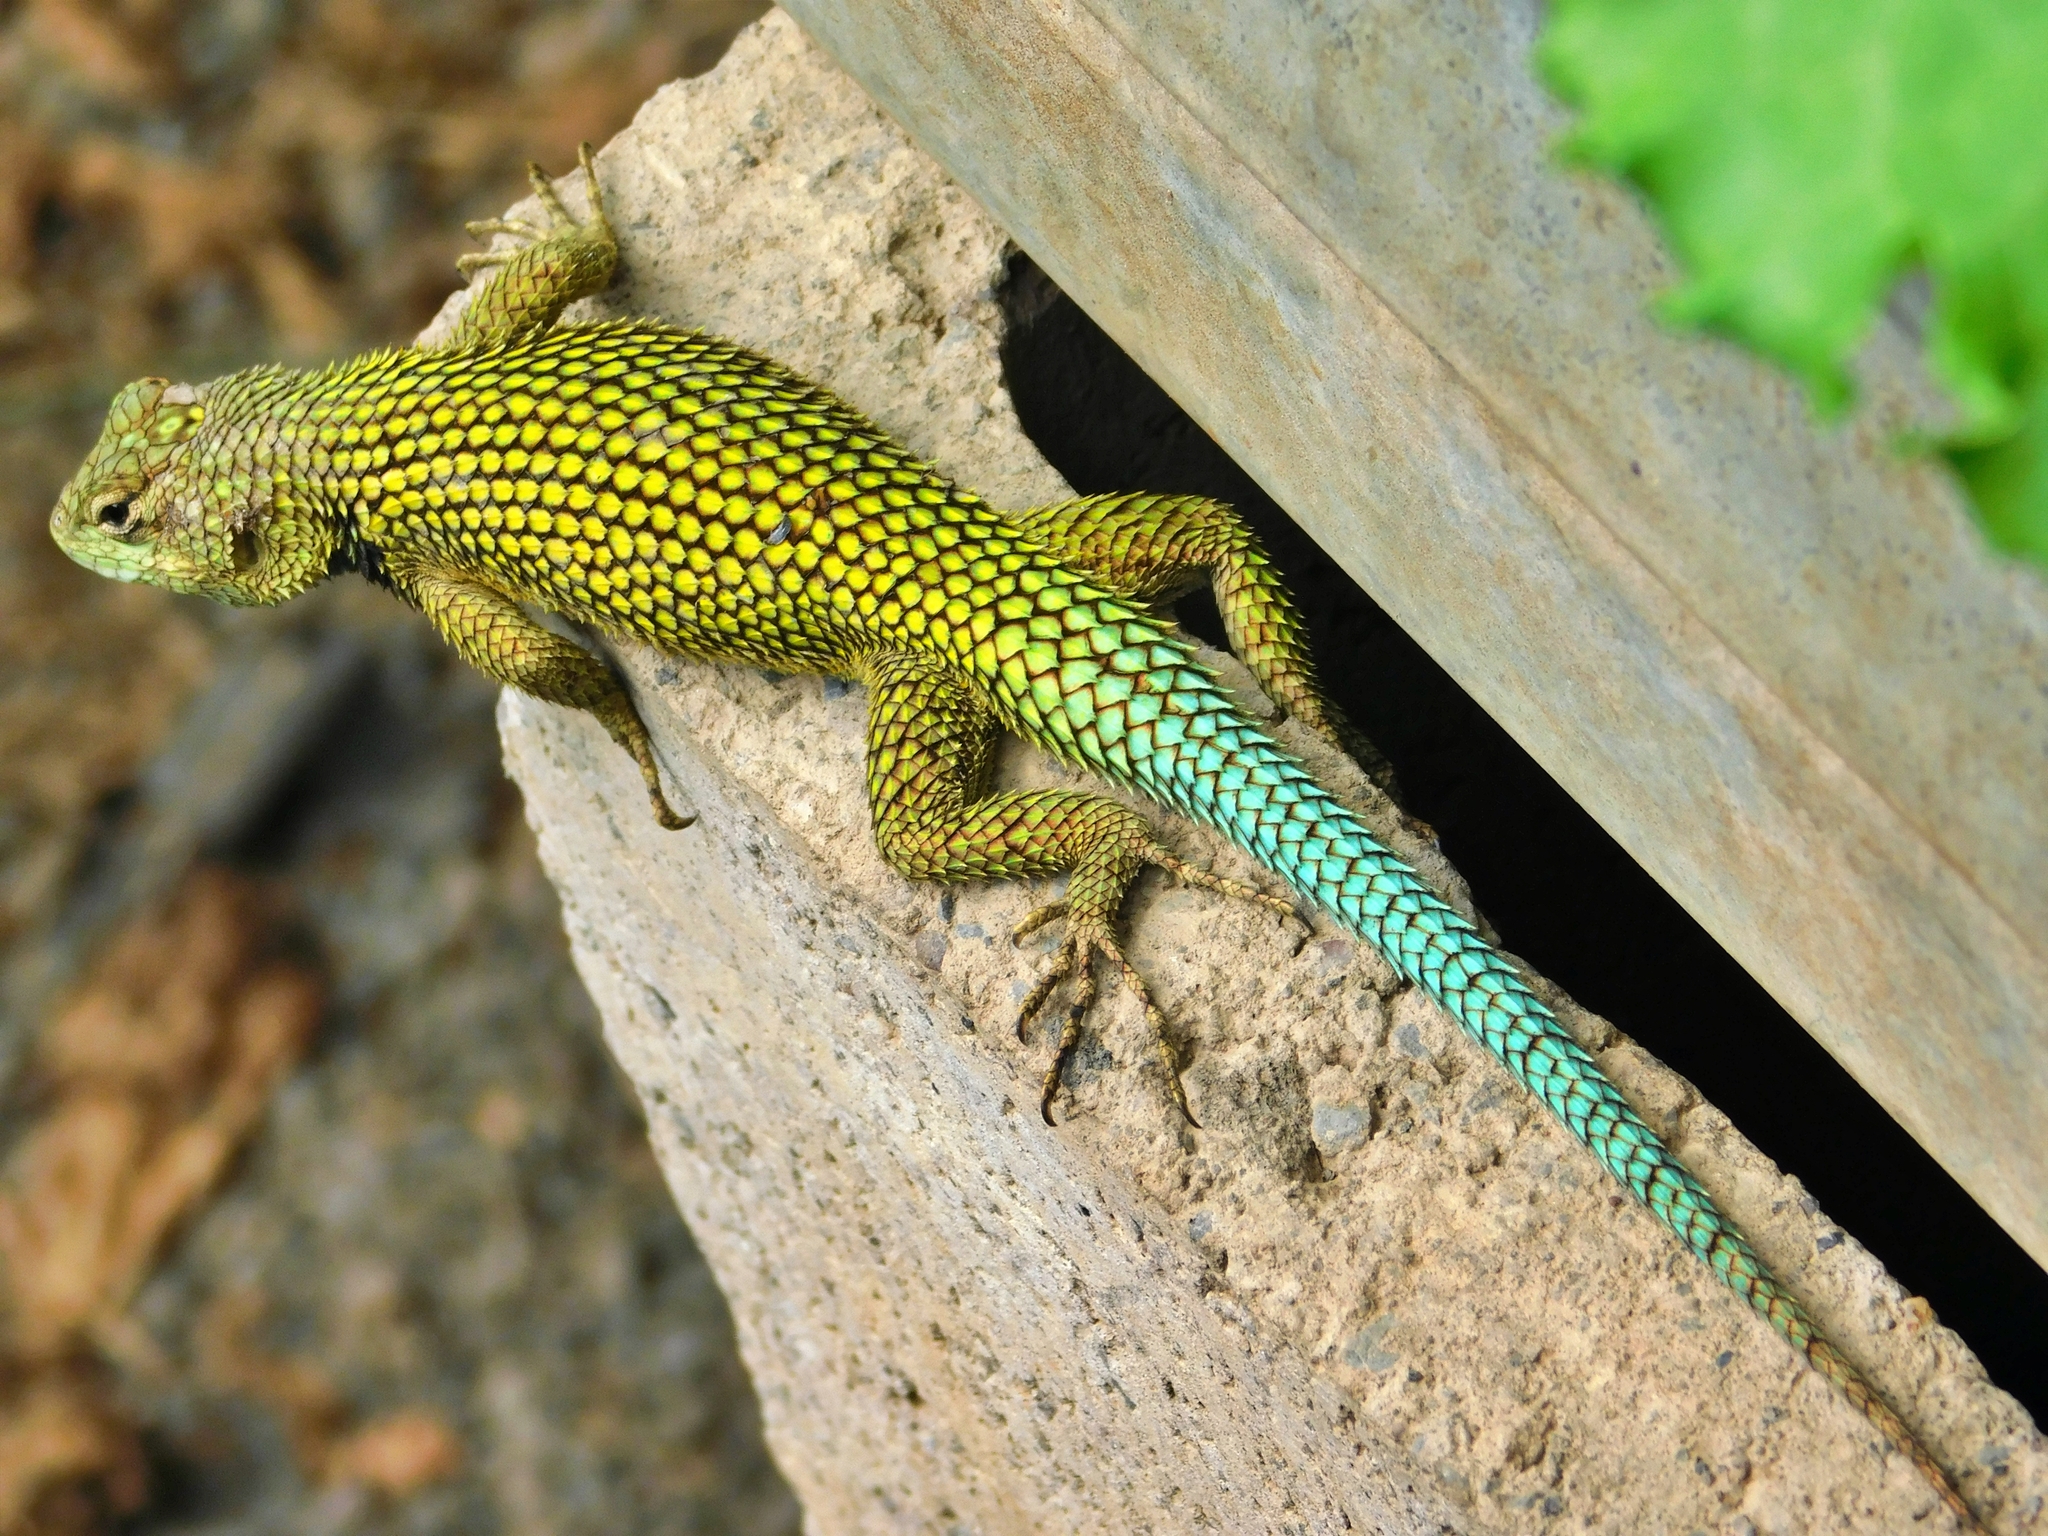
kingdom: Animalia
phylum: Chordata
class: Squamata
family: Phrynosomatidae
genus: Sceloporus
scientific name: Sceloporus malachiticus
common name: Green spiny lizard
